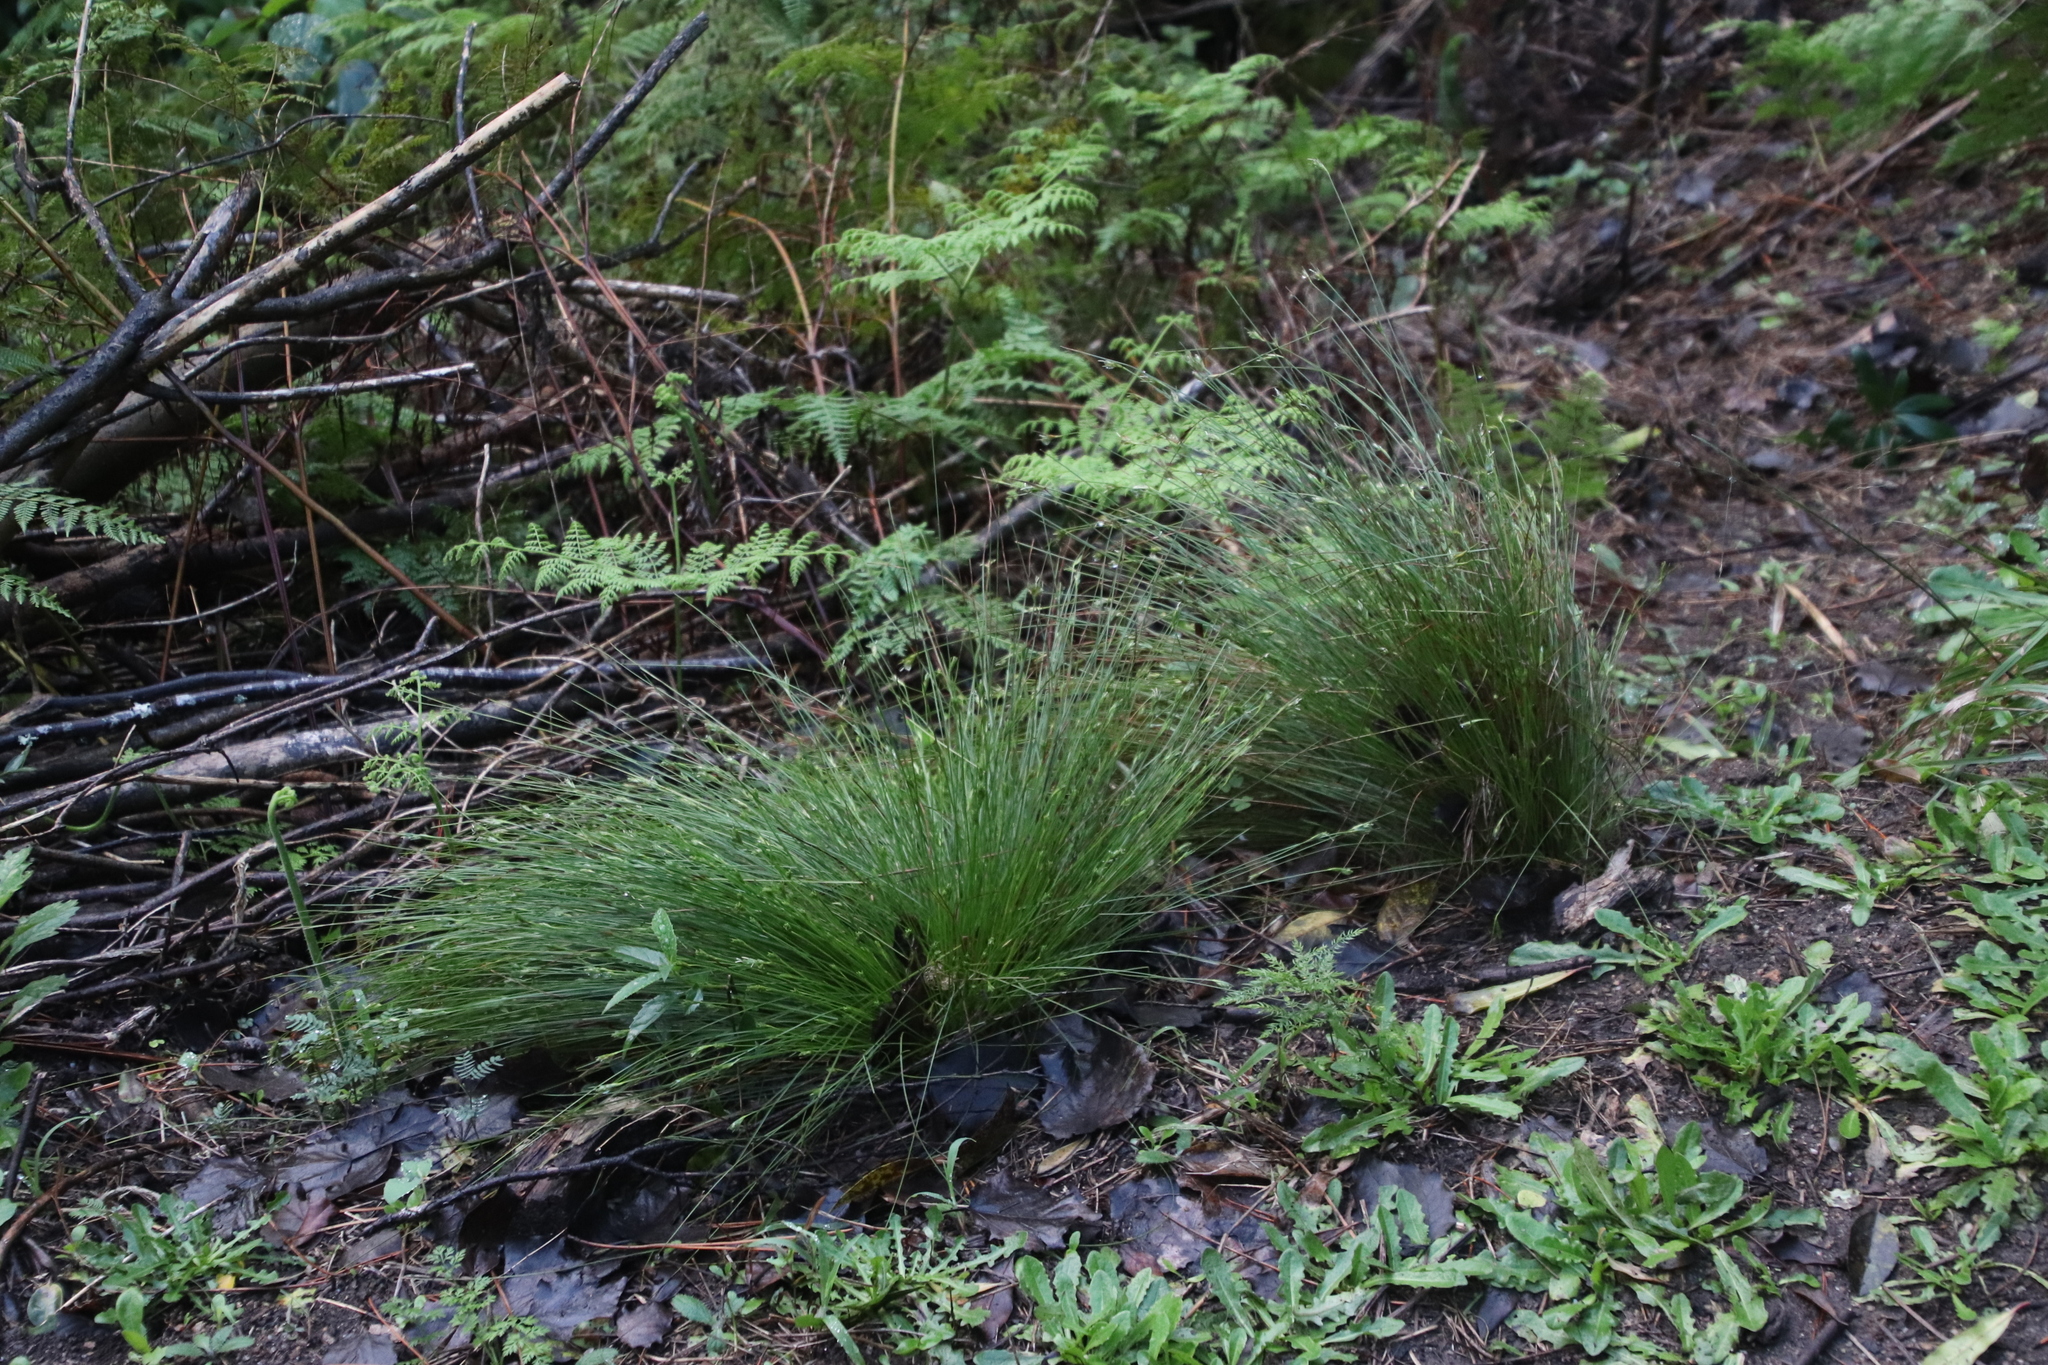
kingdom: Plantae
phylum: Tracheophyta
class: Liliopsida
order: Poales
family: Cyperaceae
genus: Ficinia
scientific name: Ficinia fastigiata
